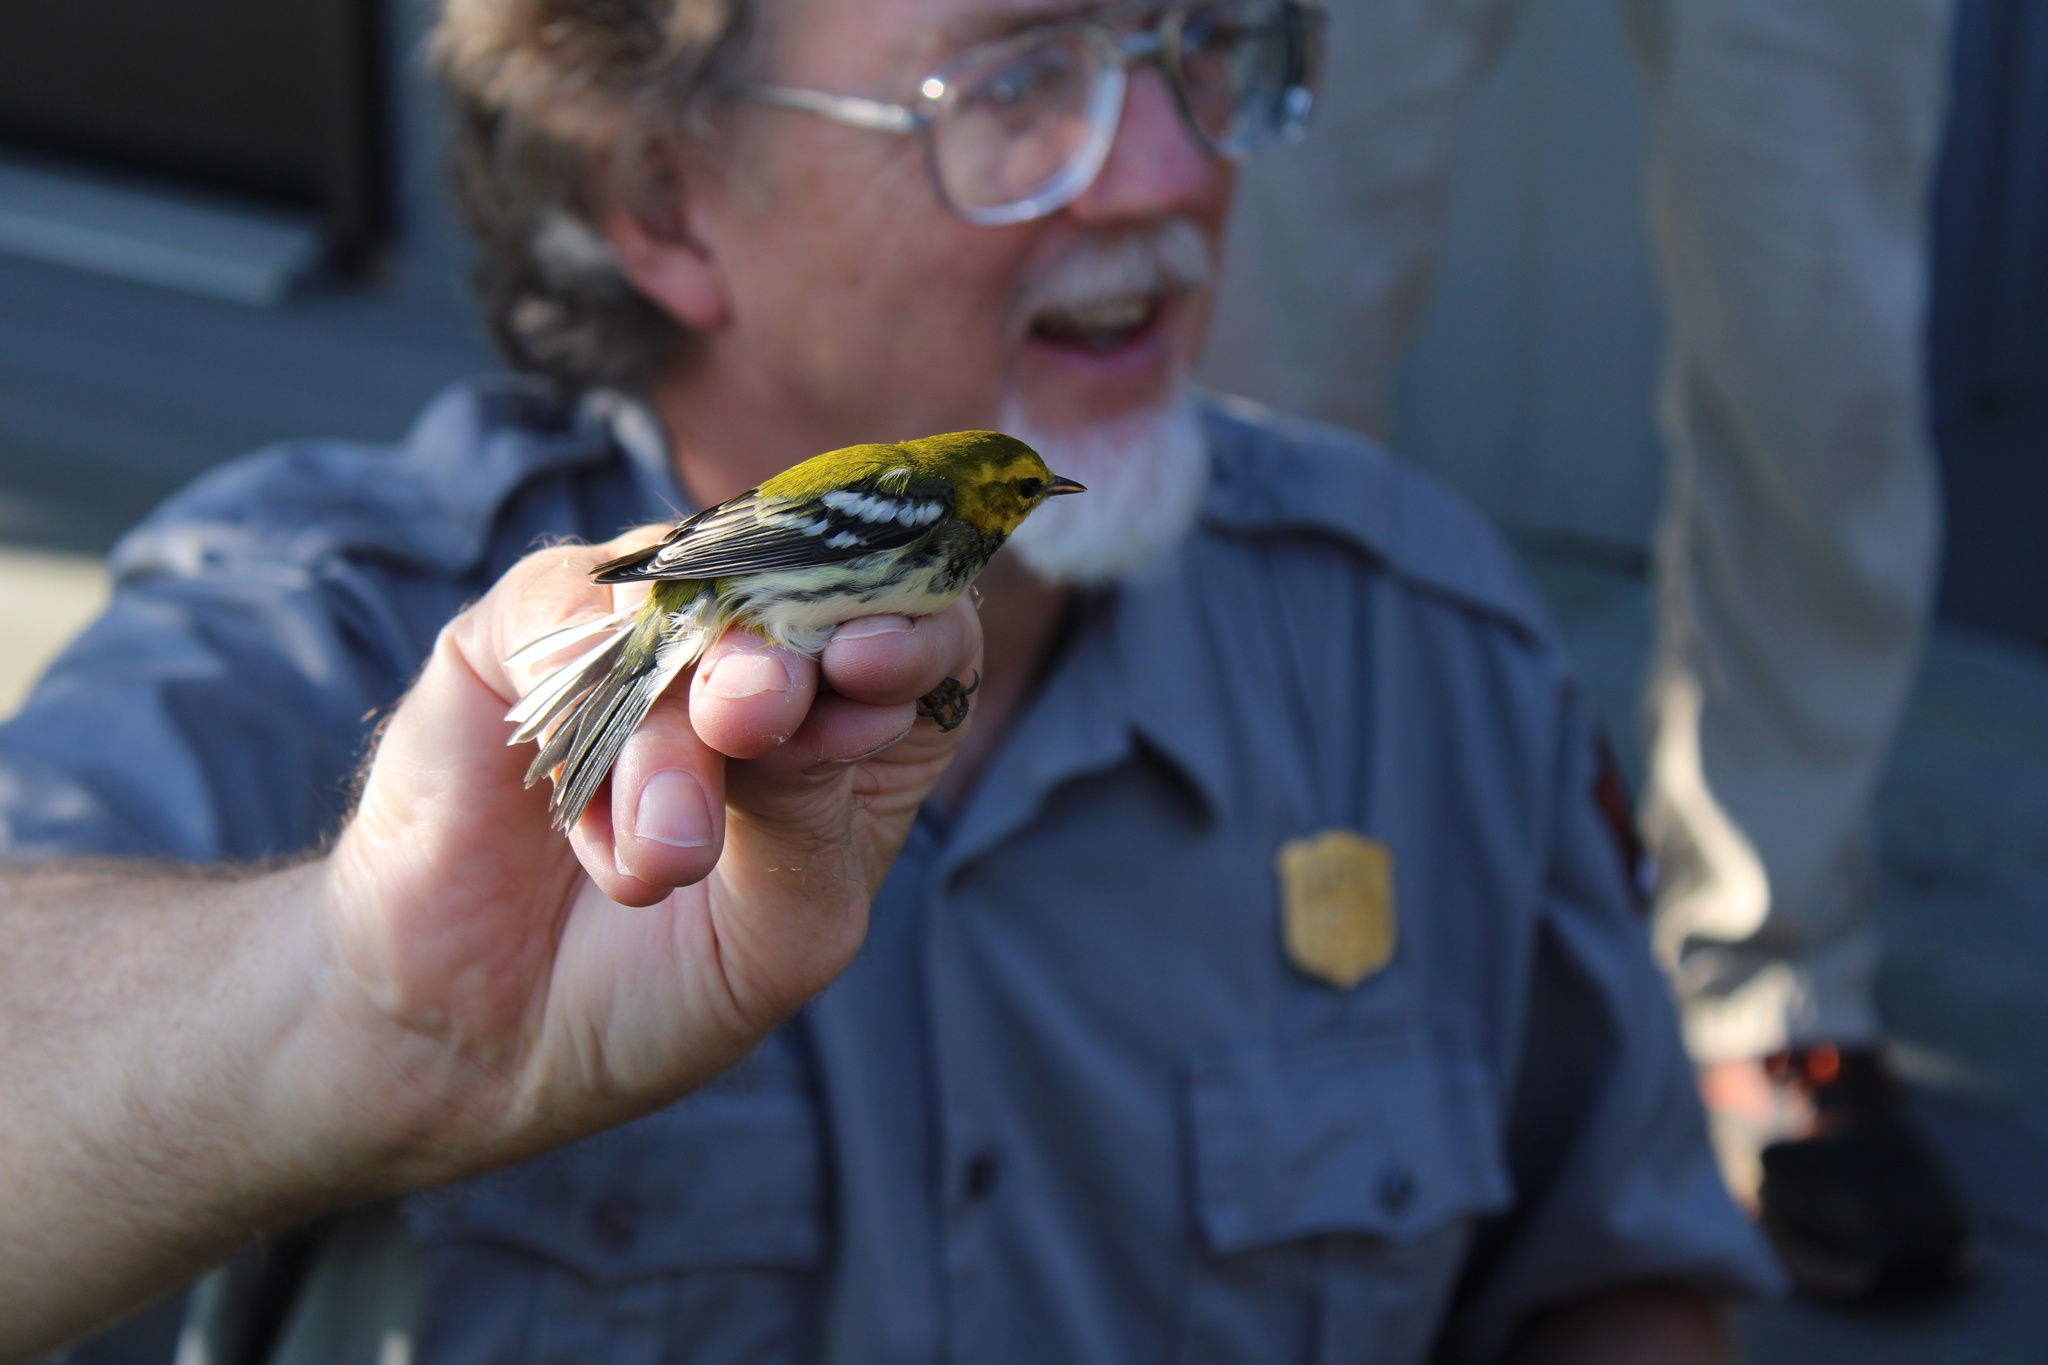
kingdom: Animalia
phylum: Chordata
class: Aves
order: Passeriformes
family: Parulidae
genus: Setophaga
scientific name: Setophaga virens
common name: Black-throated green warbler
